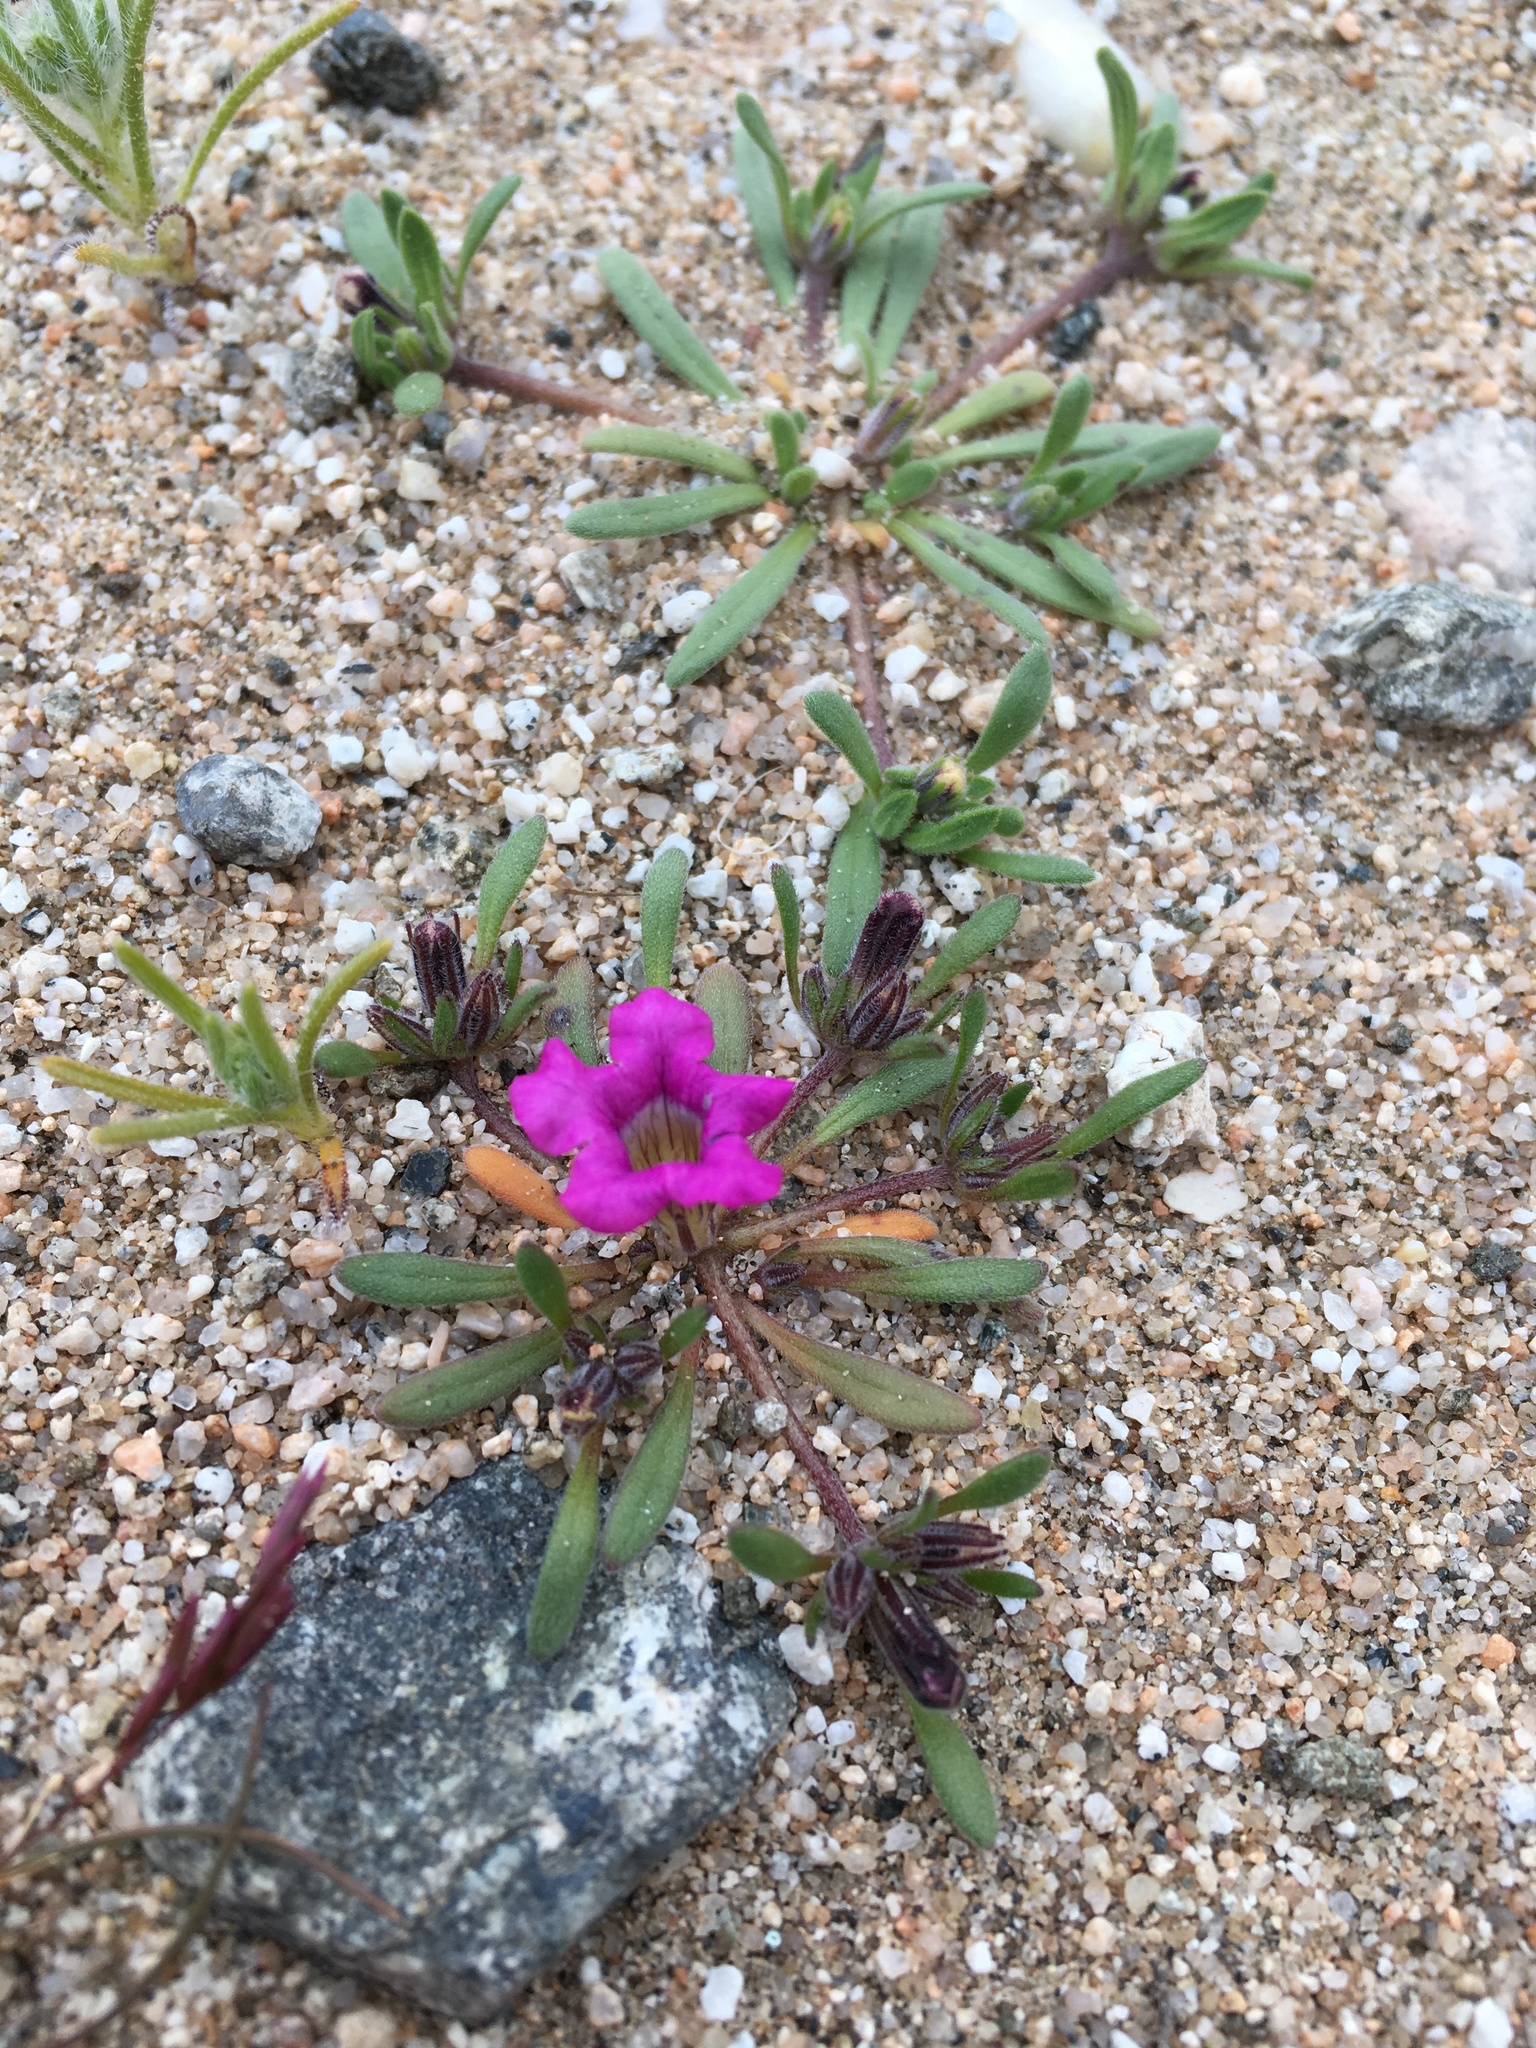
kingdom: Plantae
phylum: Tracheophyta
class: Magnoliopsida
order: Boraginales
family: Namaceae
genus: Nama
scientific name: Nama demissa
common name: Leafy nama
